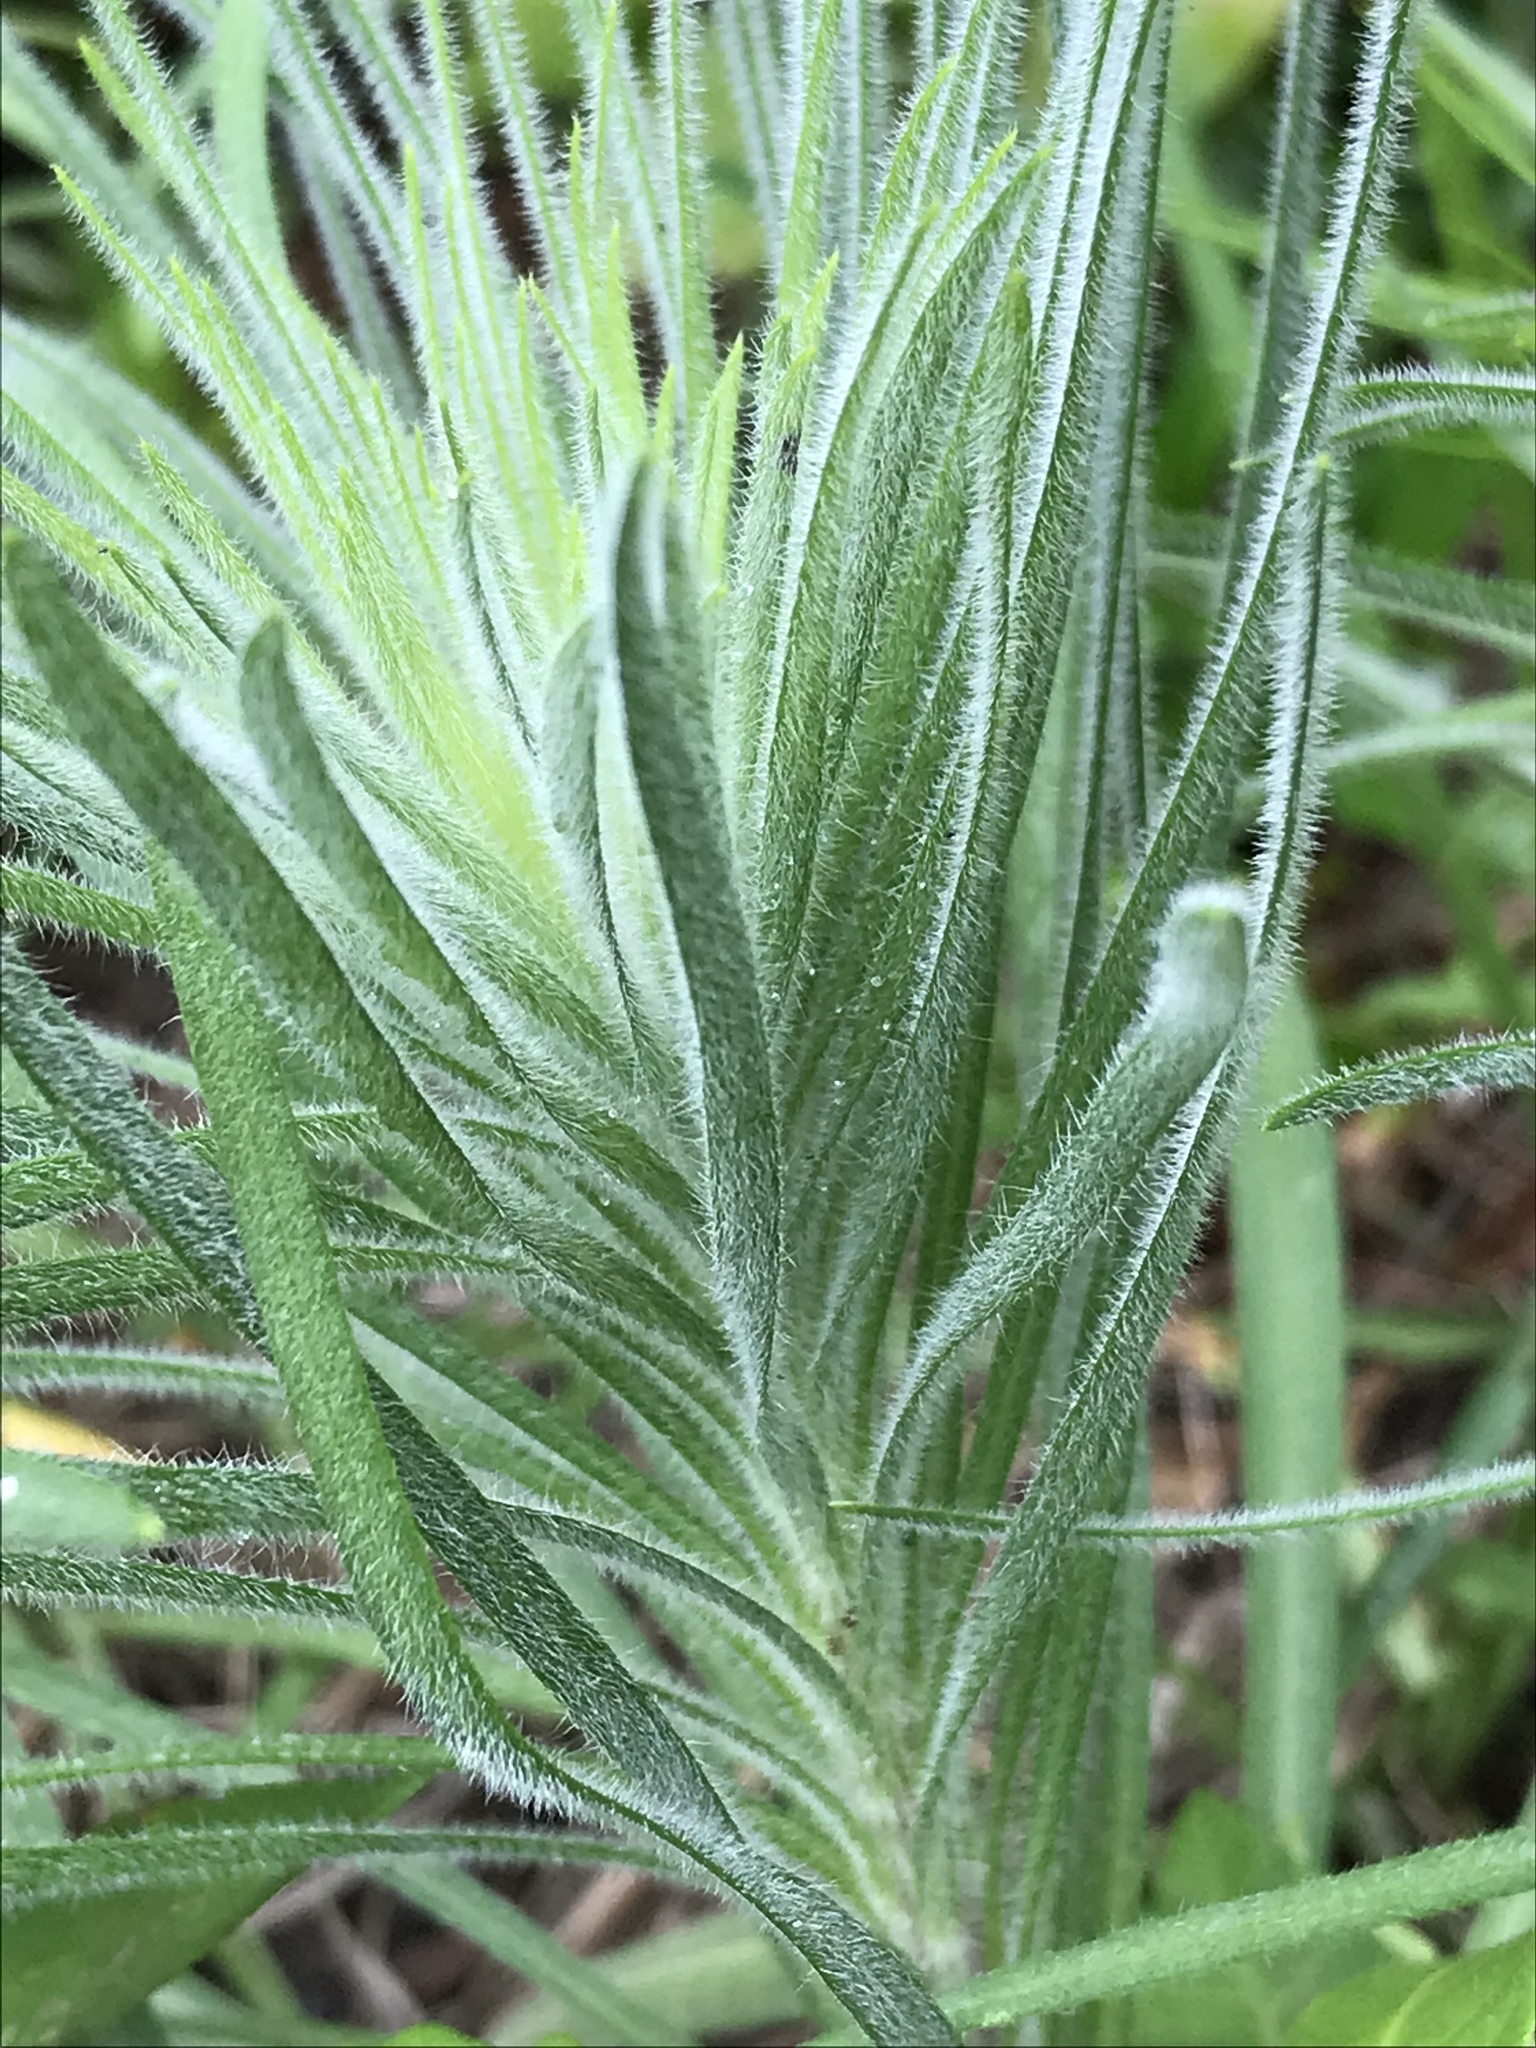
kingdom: Plantae
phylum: Tracheophyta
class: Magnoliopsida
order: Asterales
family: Asteraceae
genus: Liatris
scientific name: Liatris pycnostachya
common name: Cattail gayfeather
